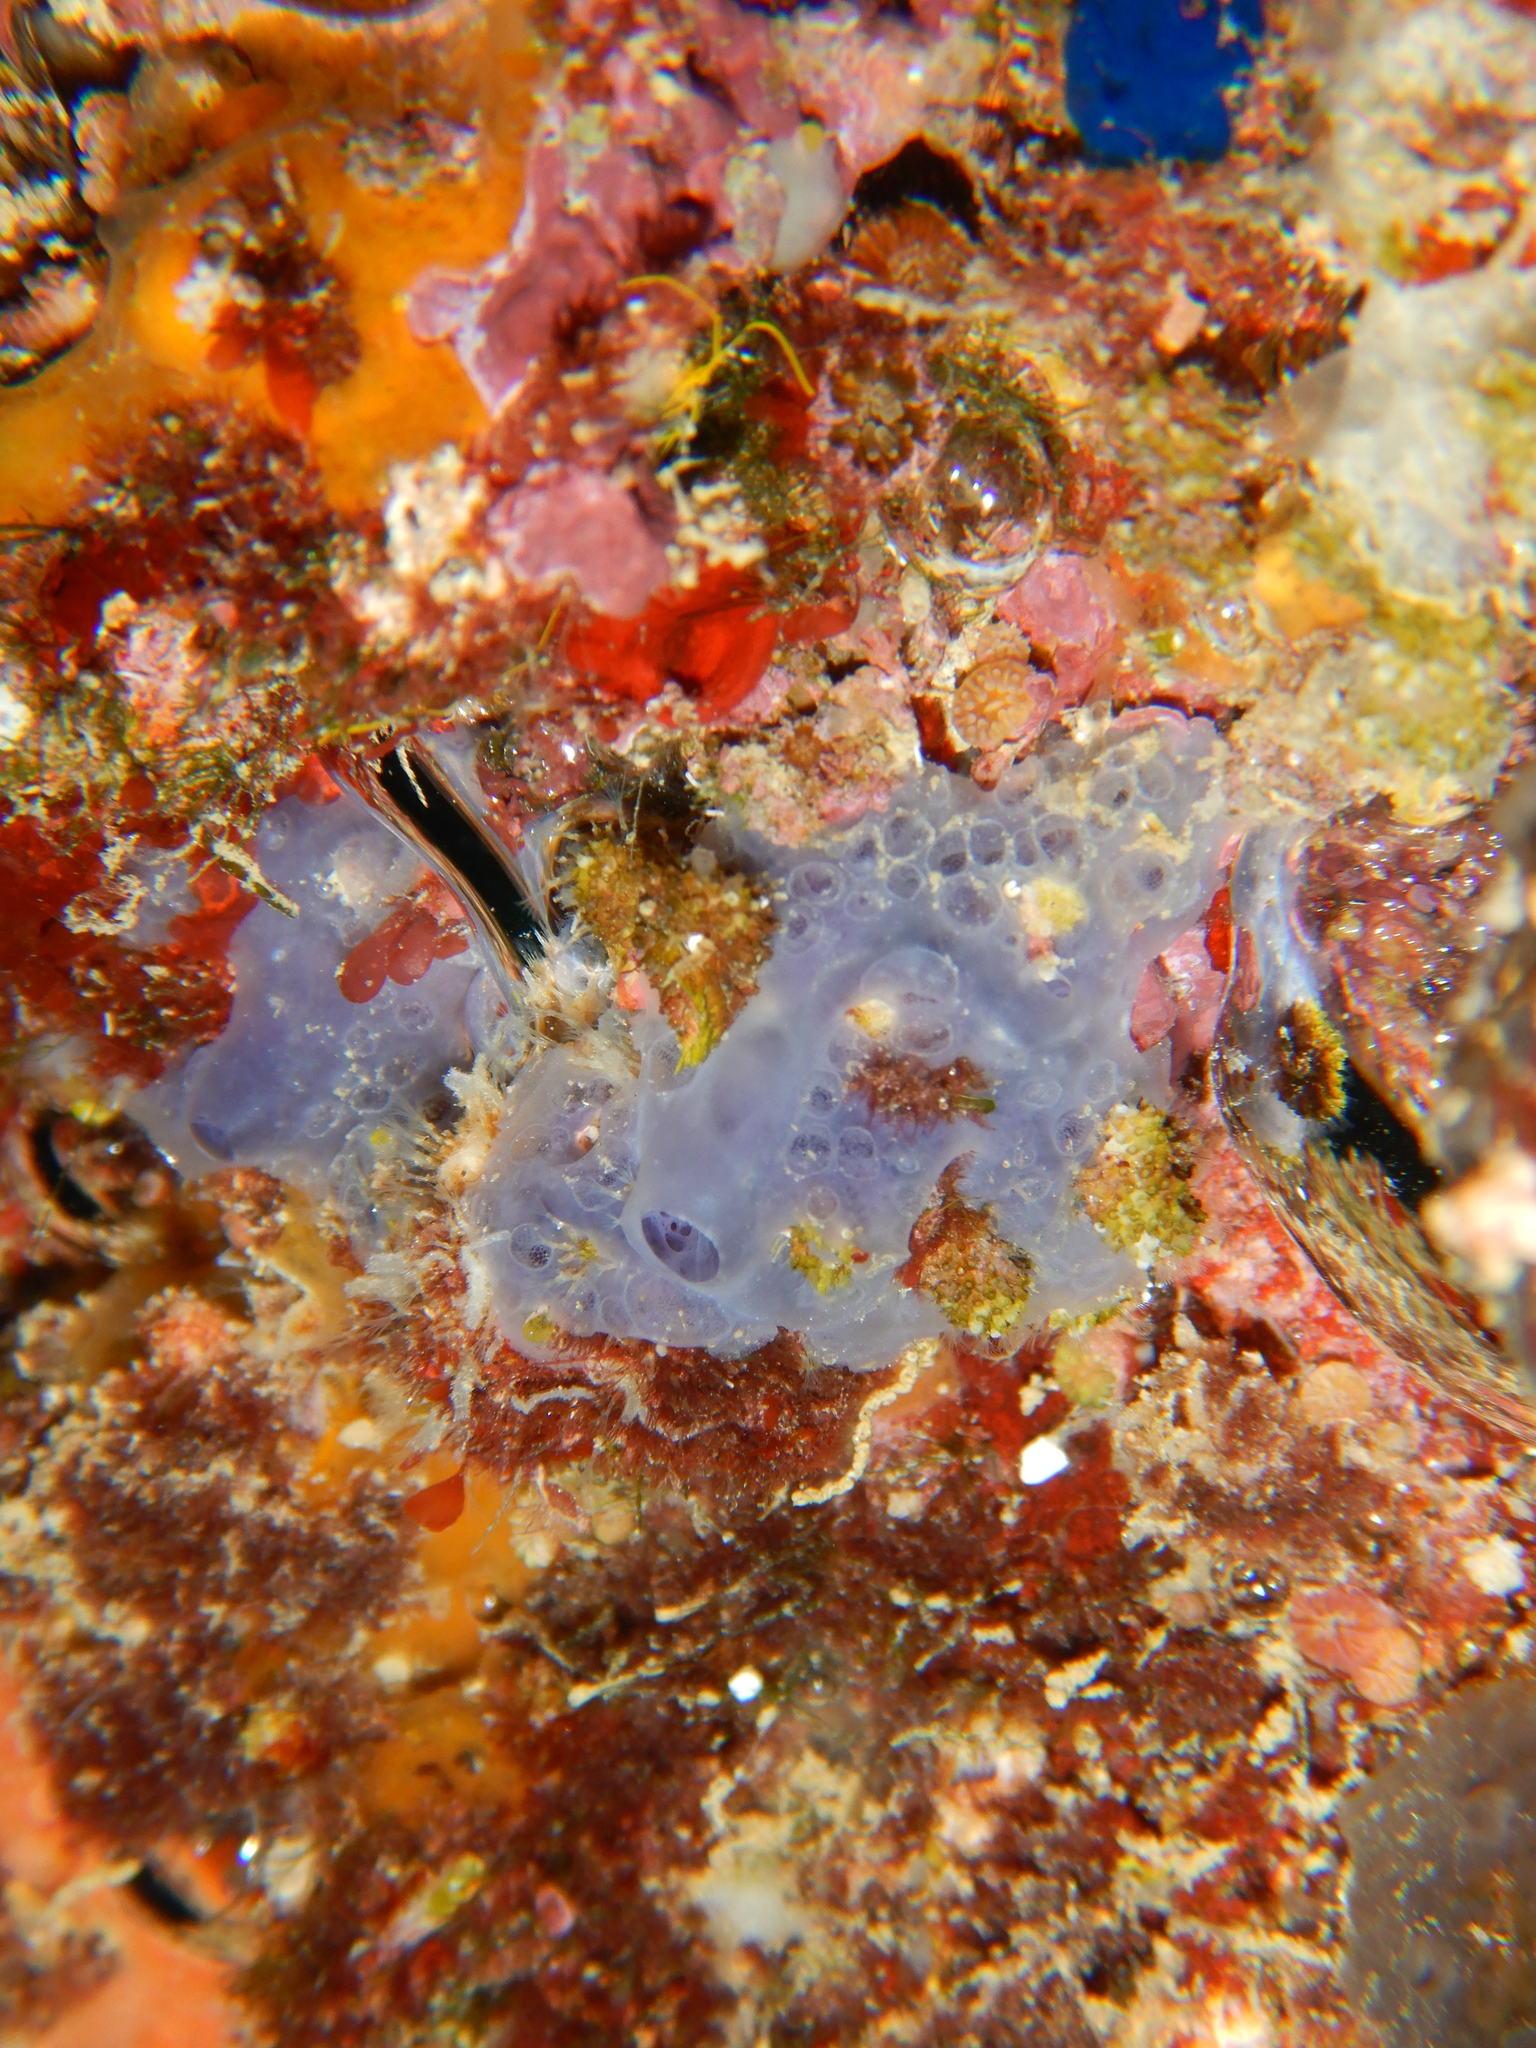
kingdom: Animalia
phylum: Porifera
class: Demospongiae
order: Poecilosclerida
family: Hymedesmiidae
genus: Phorbas
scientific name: Phorbas tenacior
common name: Bluish encrusting sponge
